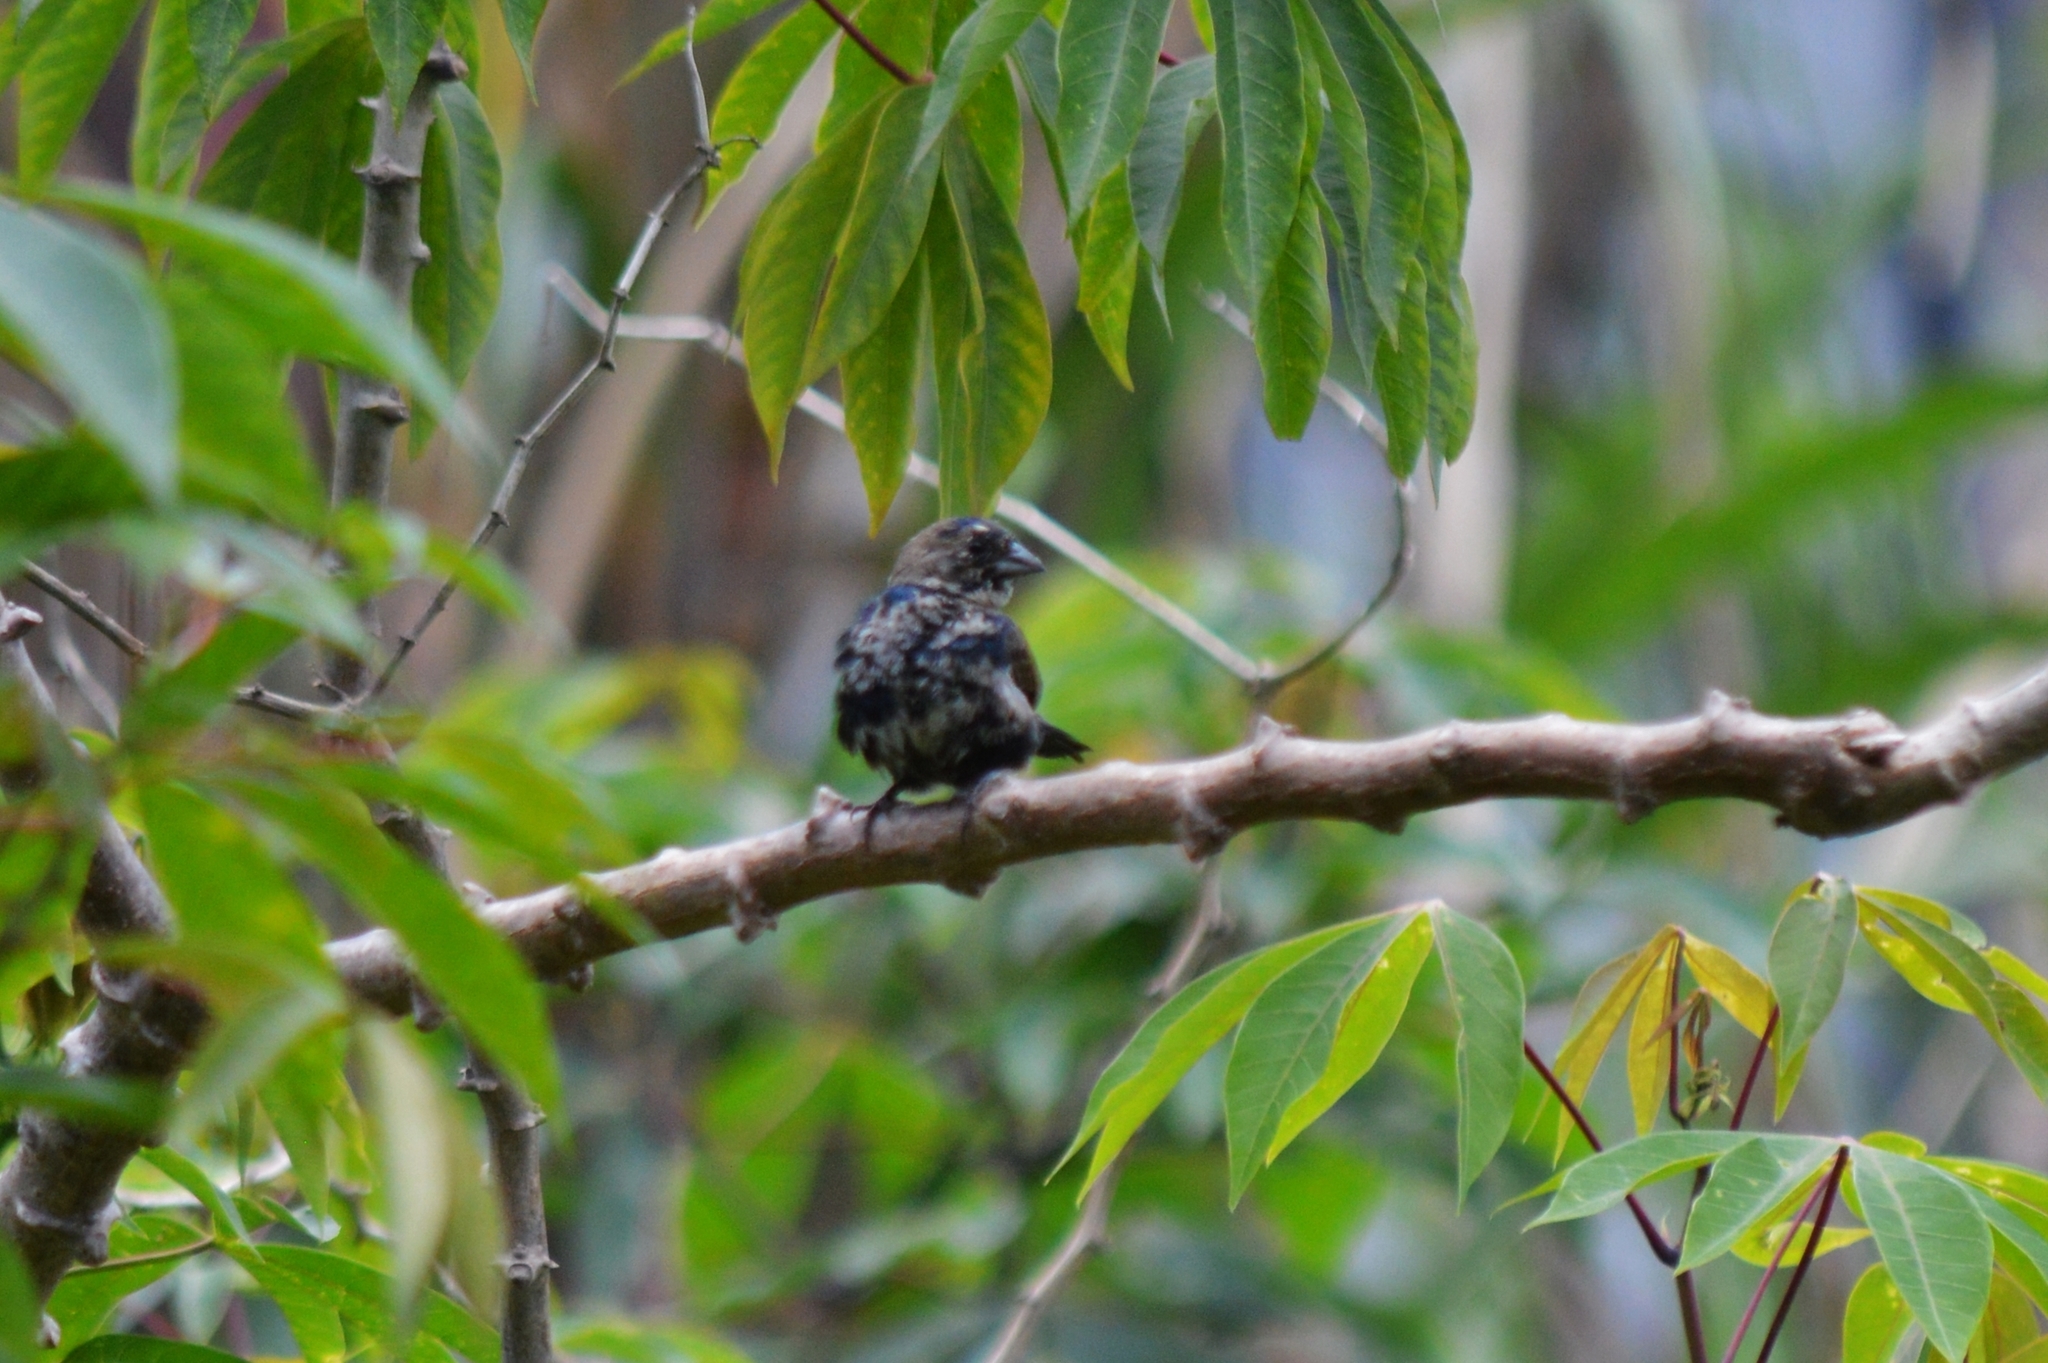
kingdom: Animalia
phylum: Chordata
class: Aves
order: Passeriformes
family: Thraupidae
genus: Volatinia
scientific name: Volatinia jacarina
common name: Blue-black grassquit
